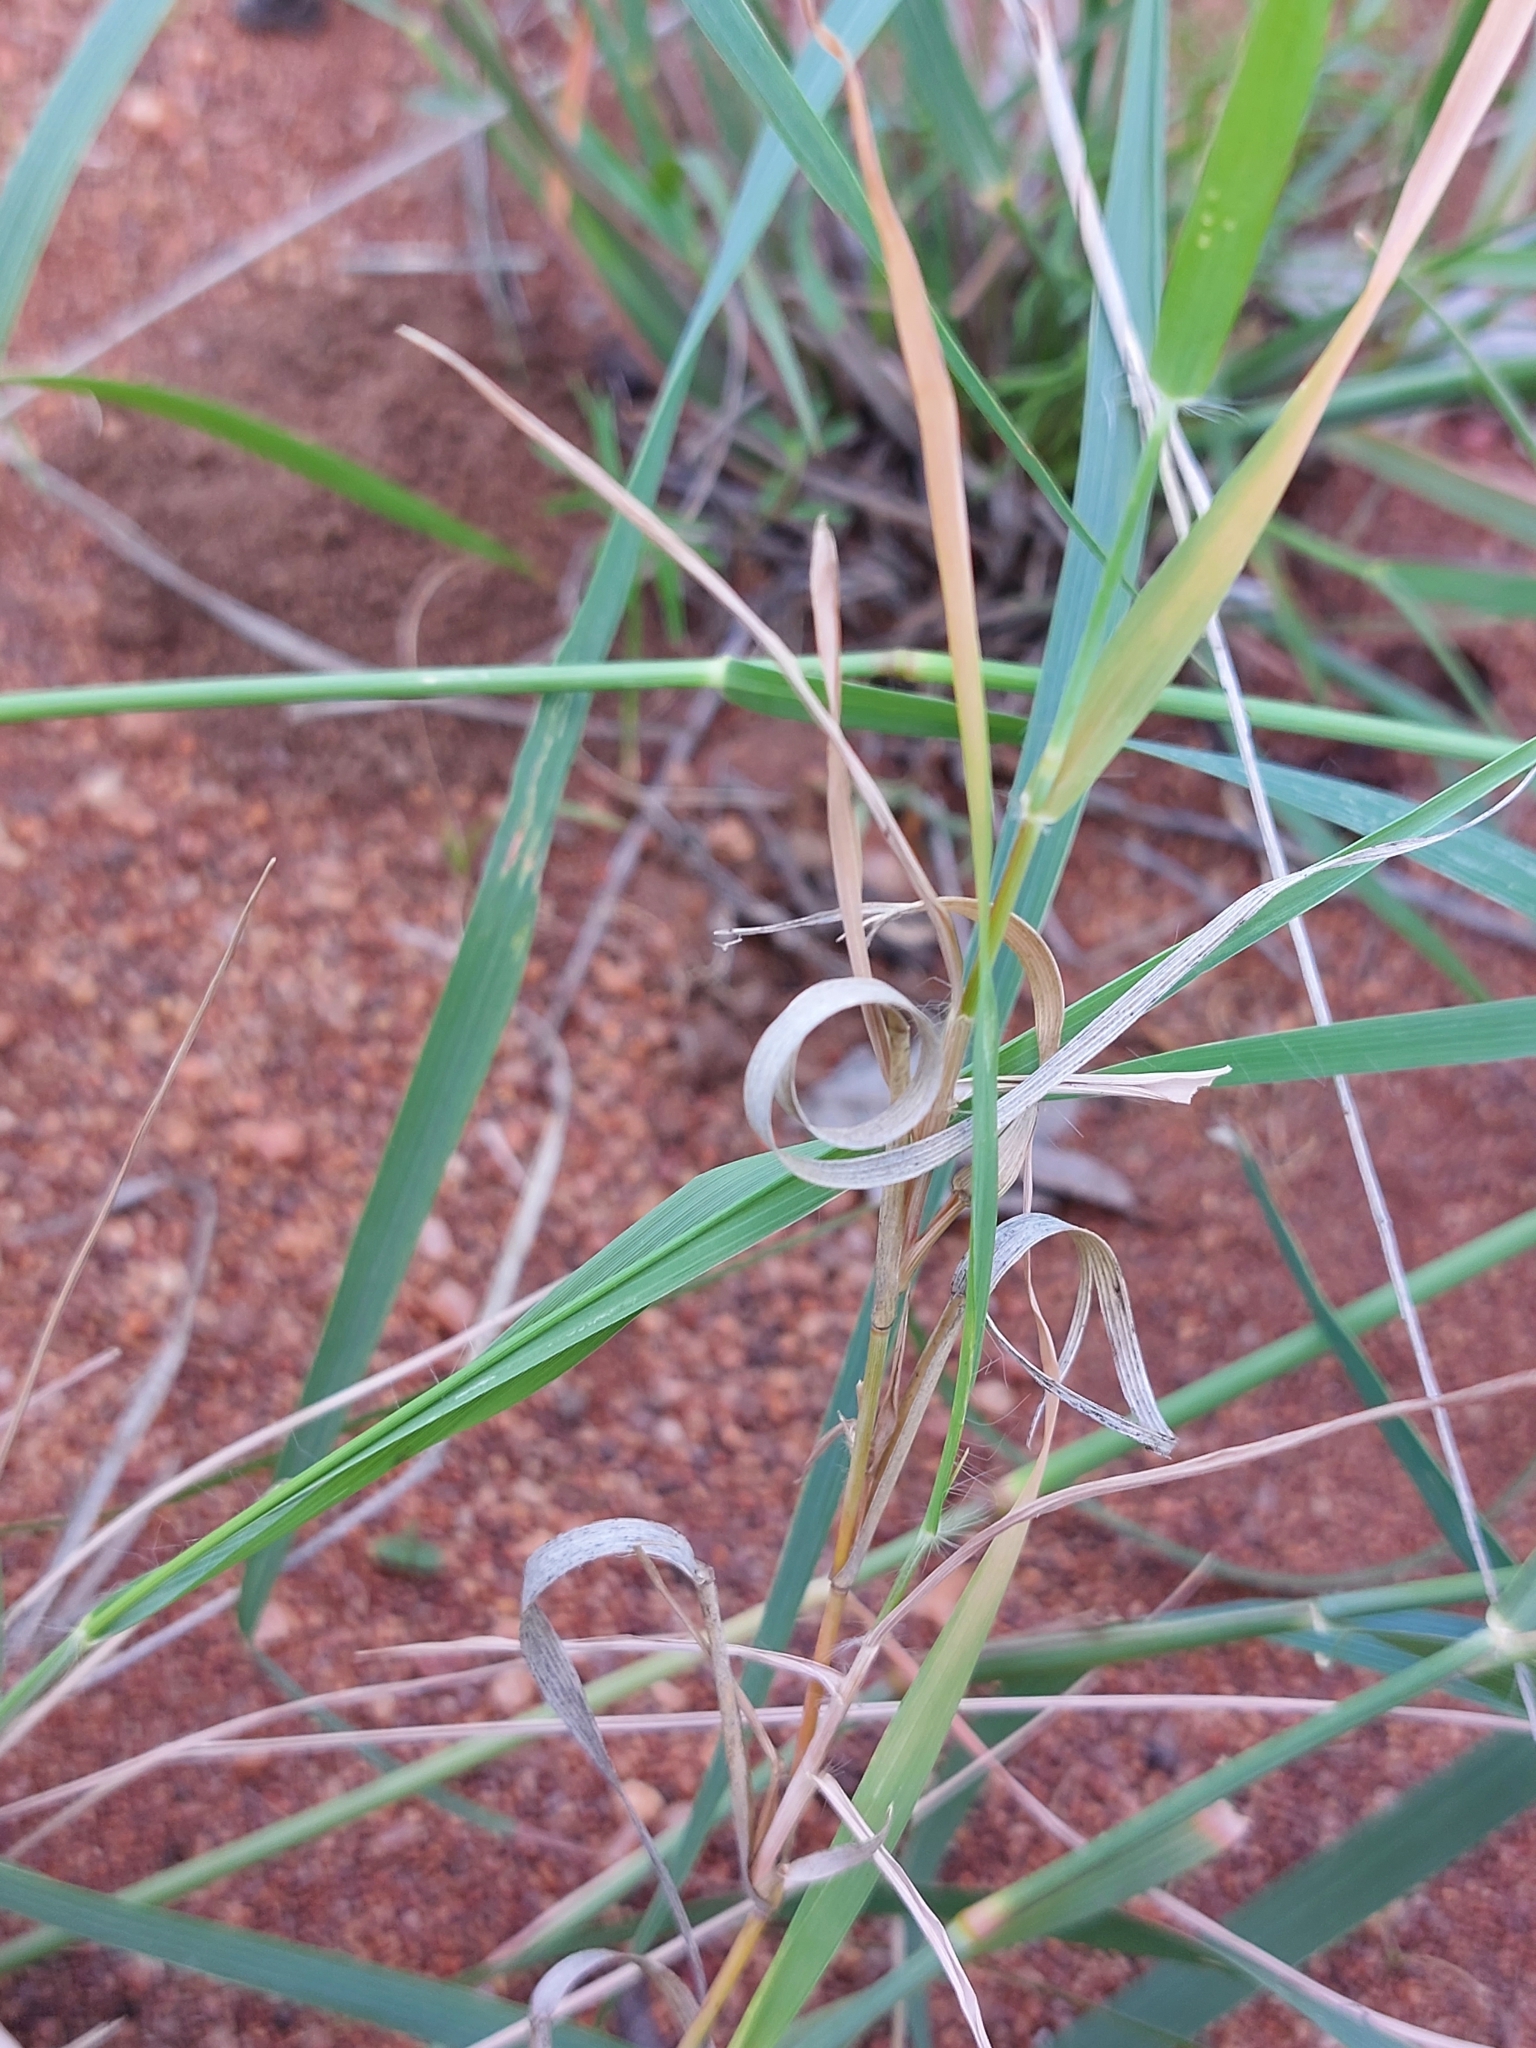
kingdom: Plantae
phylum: Tracheophyta
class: Liliopsida
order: Poales
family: Poaceae
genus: Eragrostis
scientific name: Eragrostis cylindriflora
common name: Cylinderflower lovegrass
